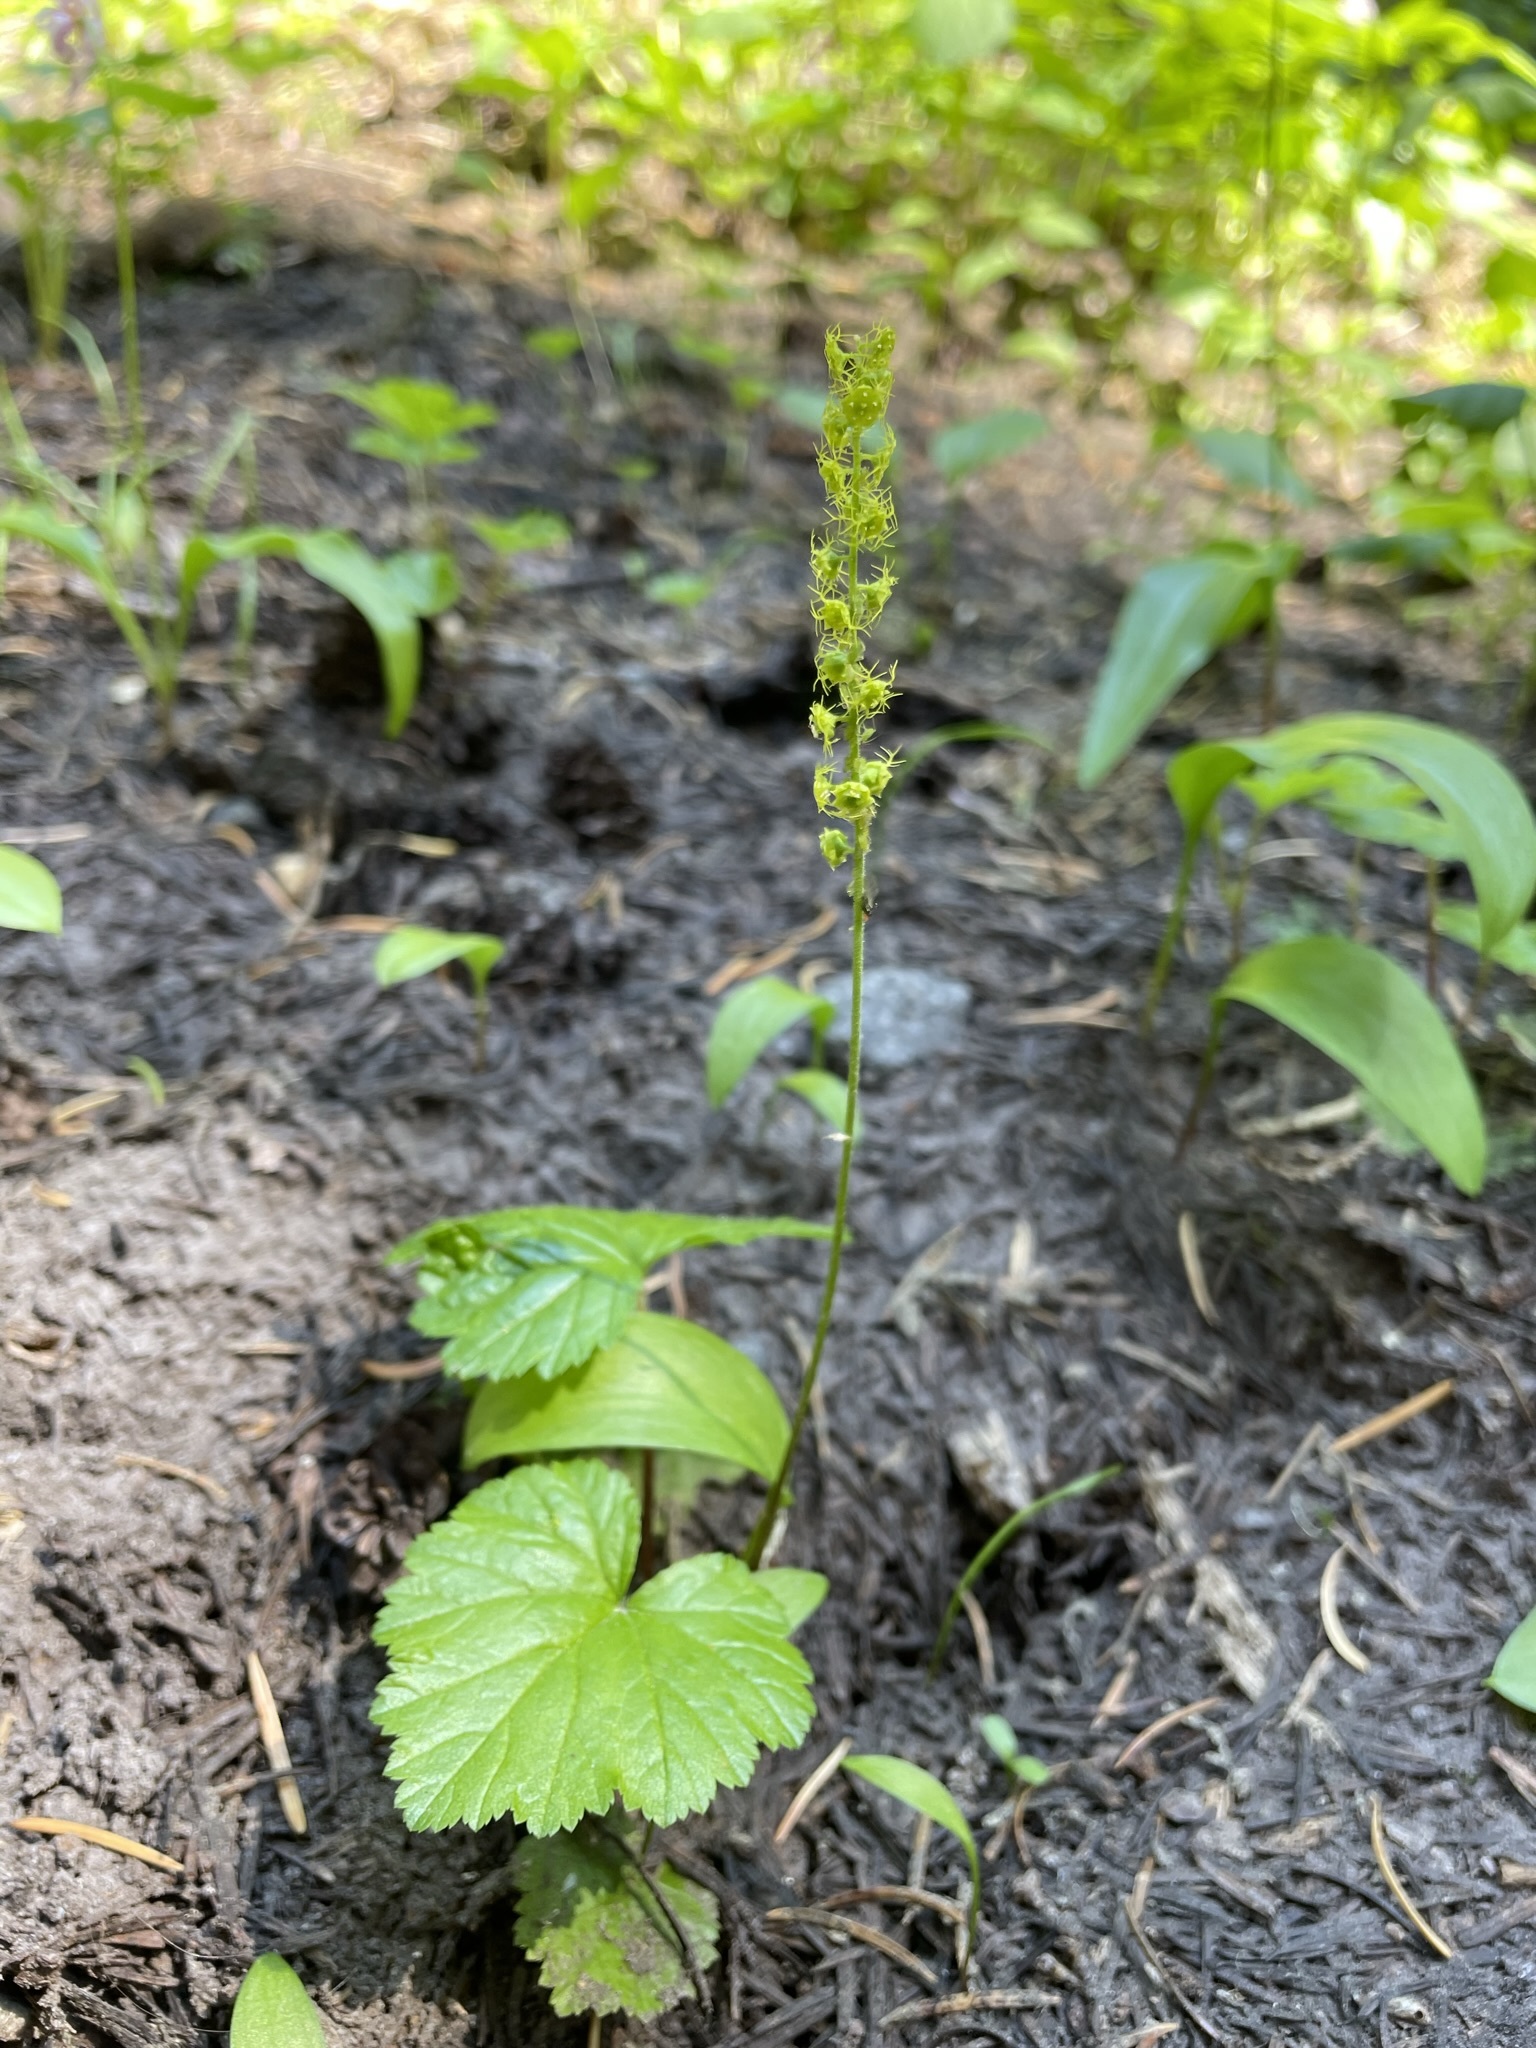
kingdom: Plantae
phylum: Tracheophyta
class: Magnoliopsida
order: Saxifragales
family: Saxifragaceae
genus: Brewerimitella
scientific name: Brewerimitella breweri
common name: Brewer's bishop's-cap
